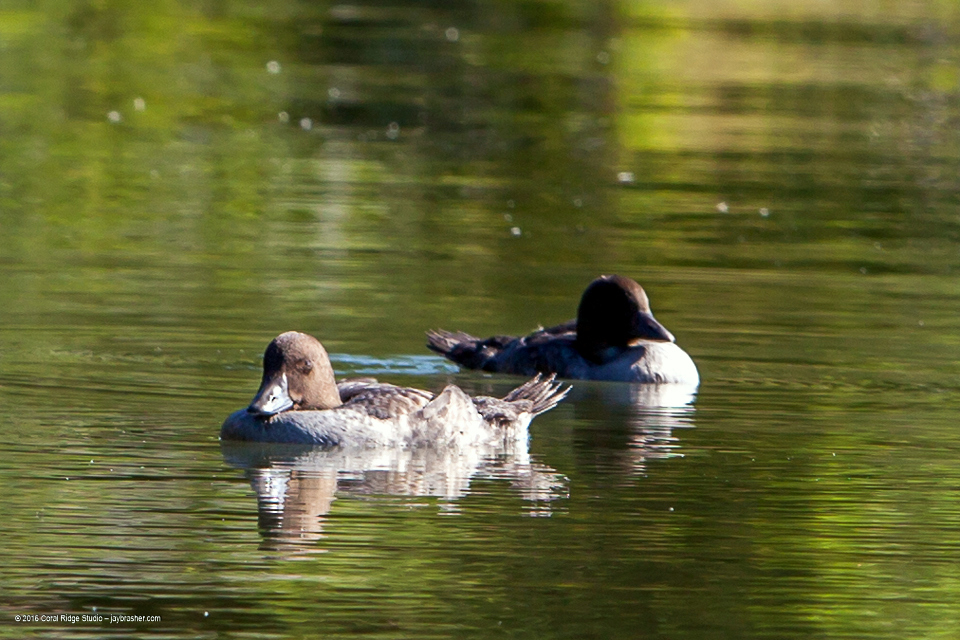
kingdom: Animalia
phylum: Chordata
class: Aves
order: Anseriformes
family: Anatidae
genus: Bucephala
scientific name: Bucephala clangula
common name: Common goldeneye
